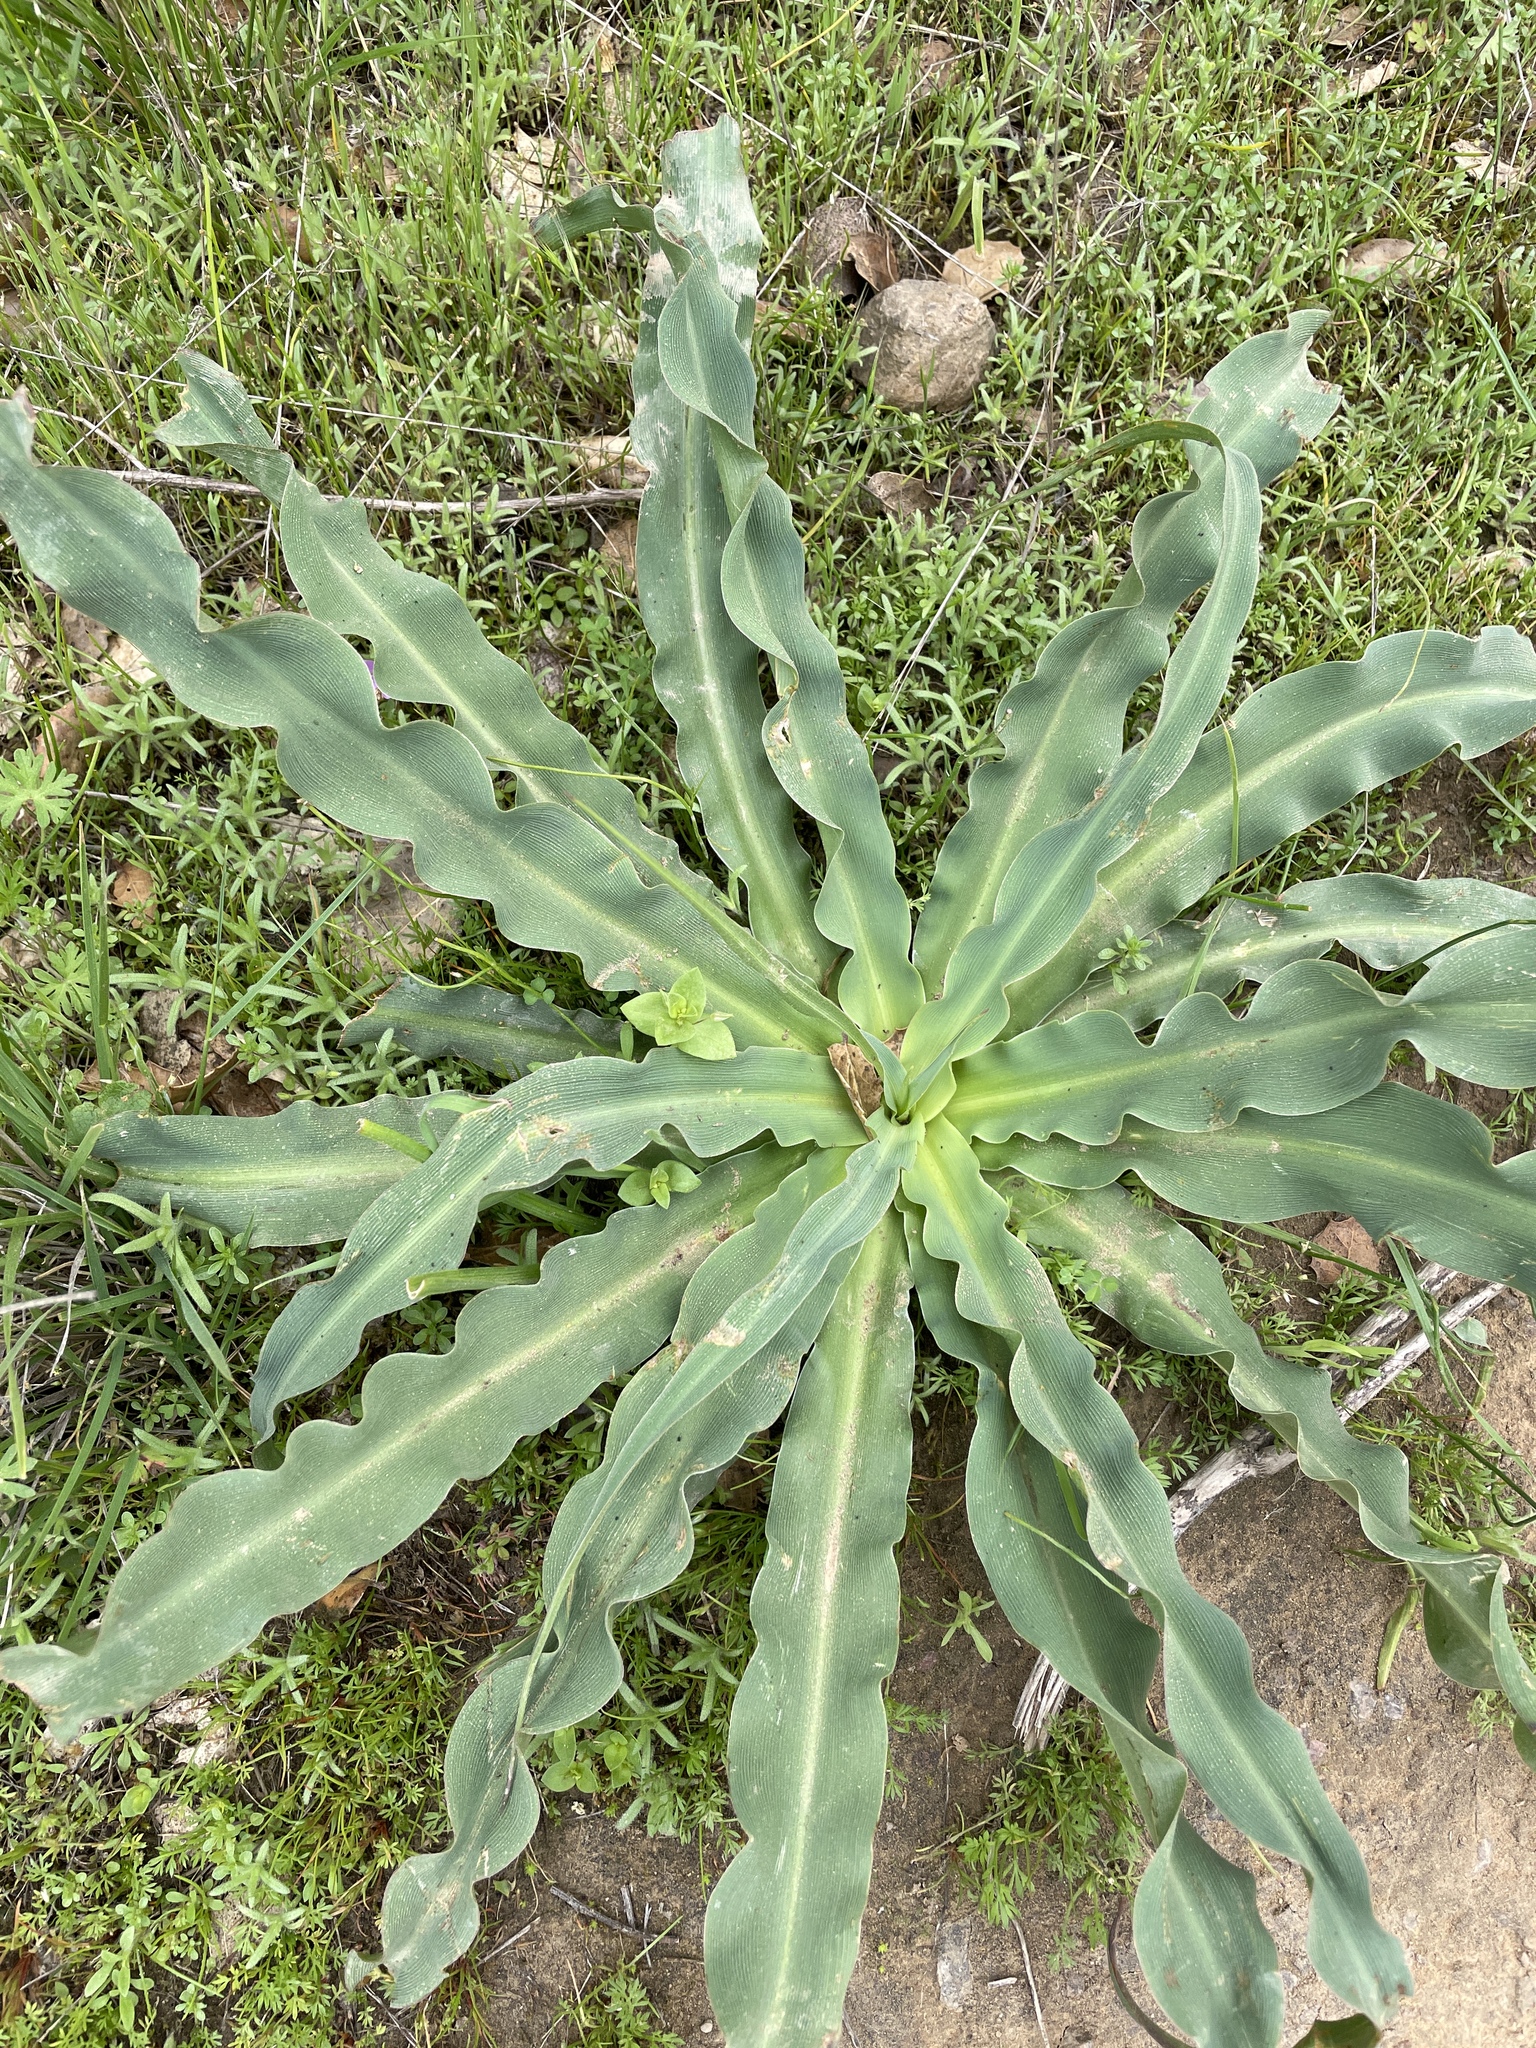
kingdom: Plantae
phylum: Tracheophyta
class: Liliopsida
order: Asparagales
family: Asparagaceae
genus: Chlorogalum
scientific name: Chlorogalum pomeridianum
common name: Amole
